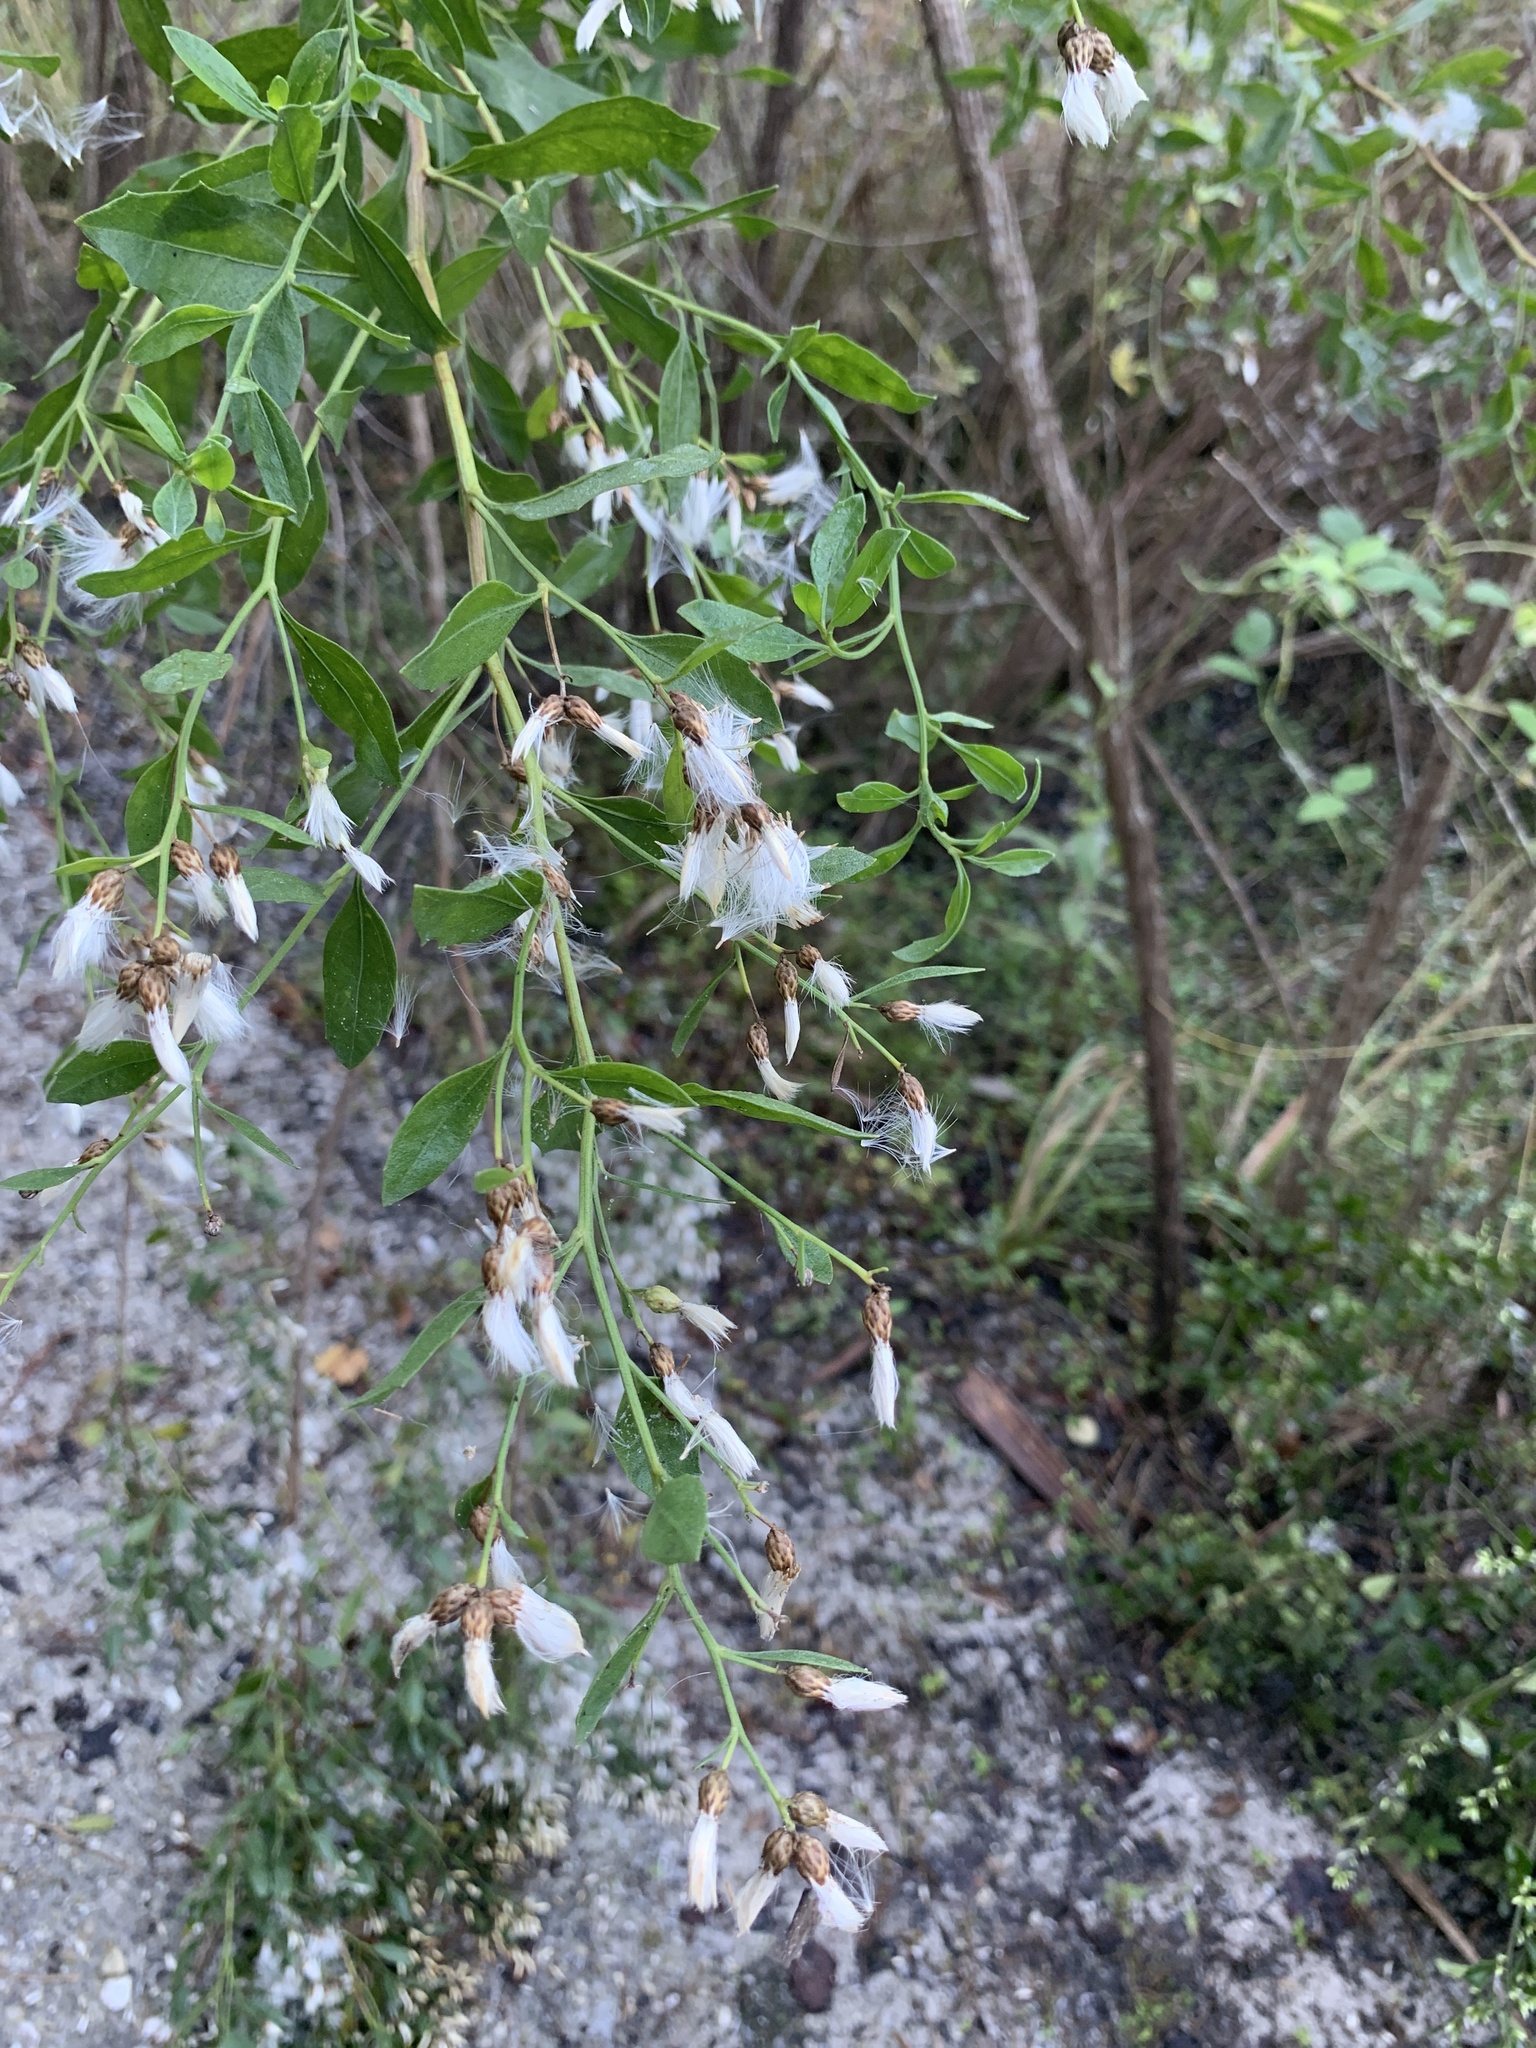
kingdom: Plantae
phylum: Tracheophyta
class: Magnoliopsida
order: Asterales
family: Asteraceae
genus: Baccharis
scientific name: Baccharis halimifolia
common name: Eastern baccharis
